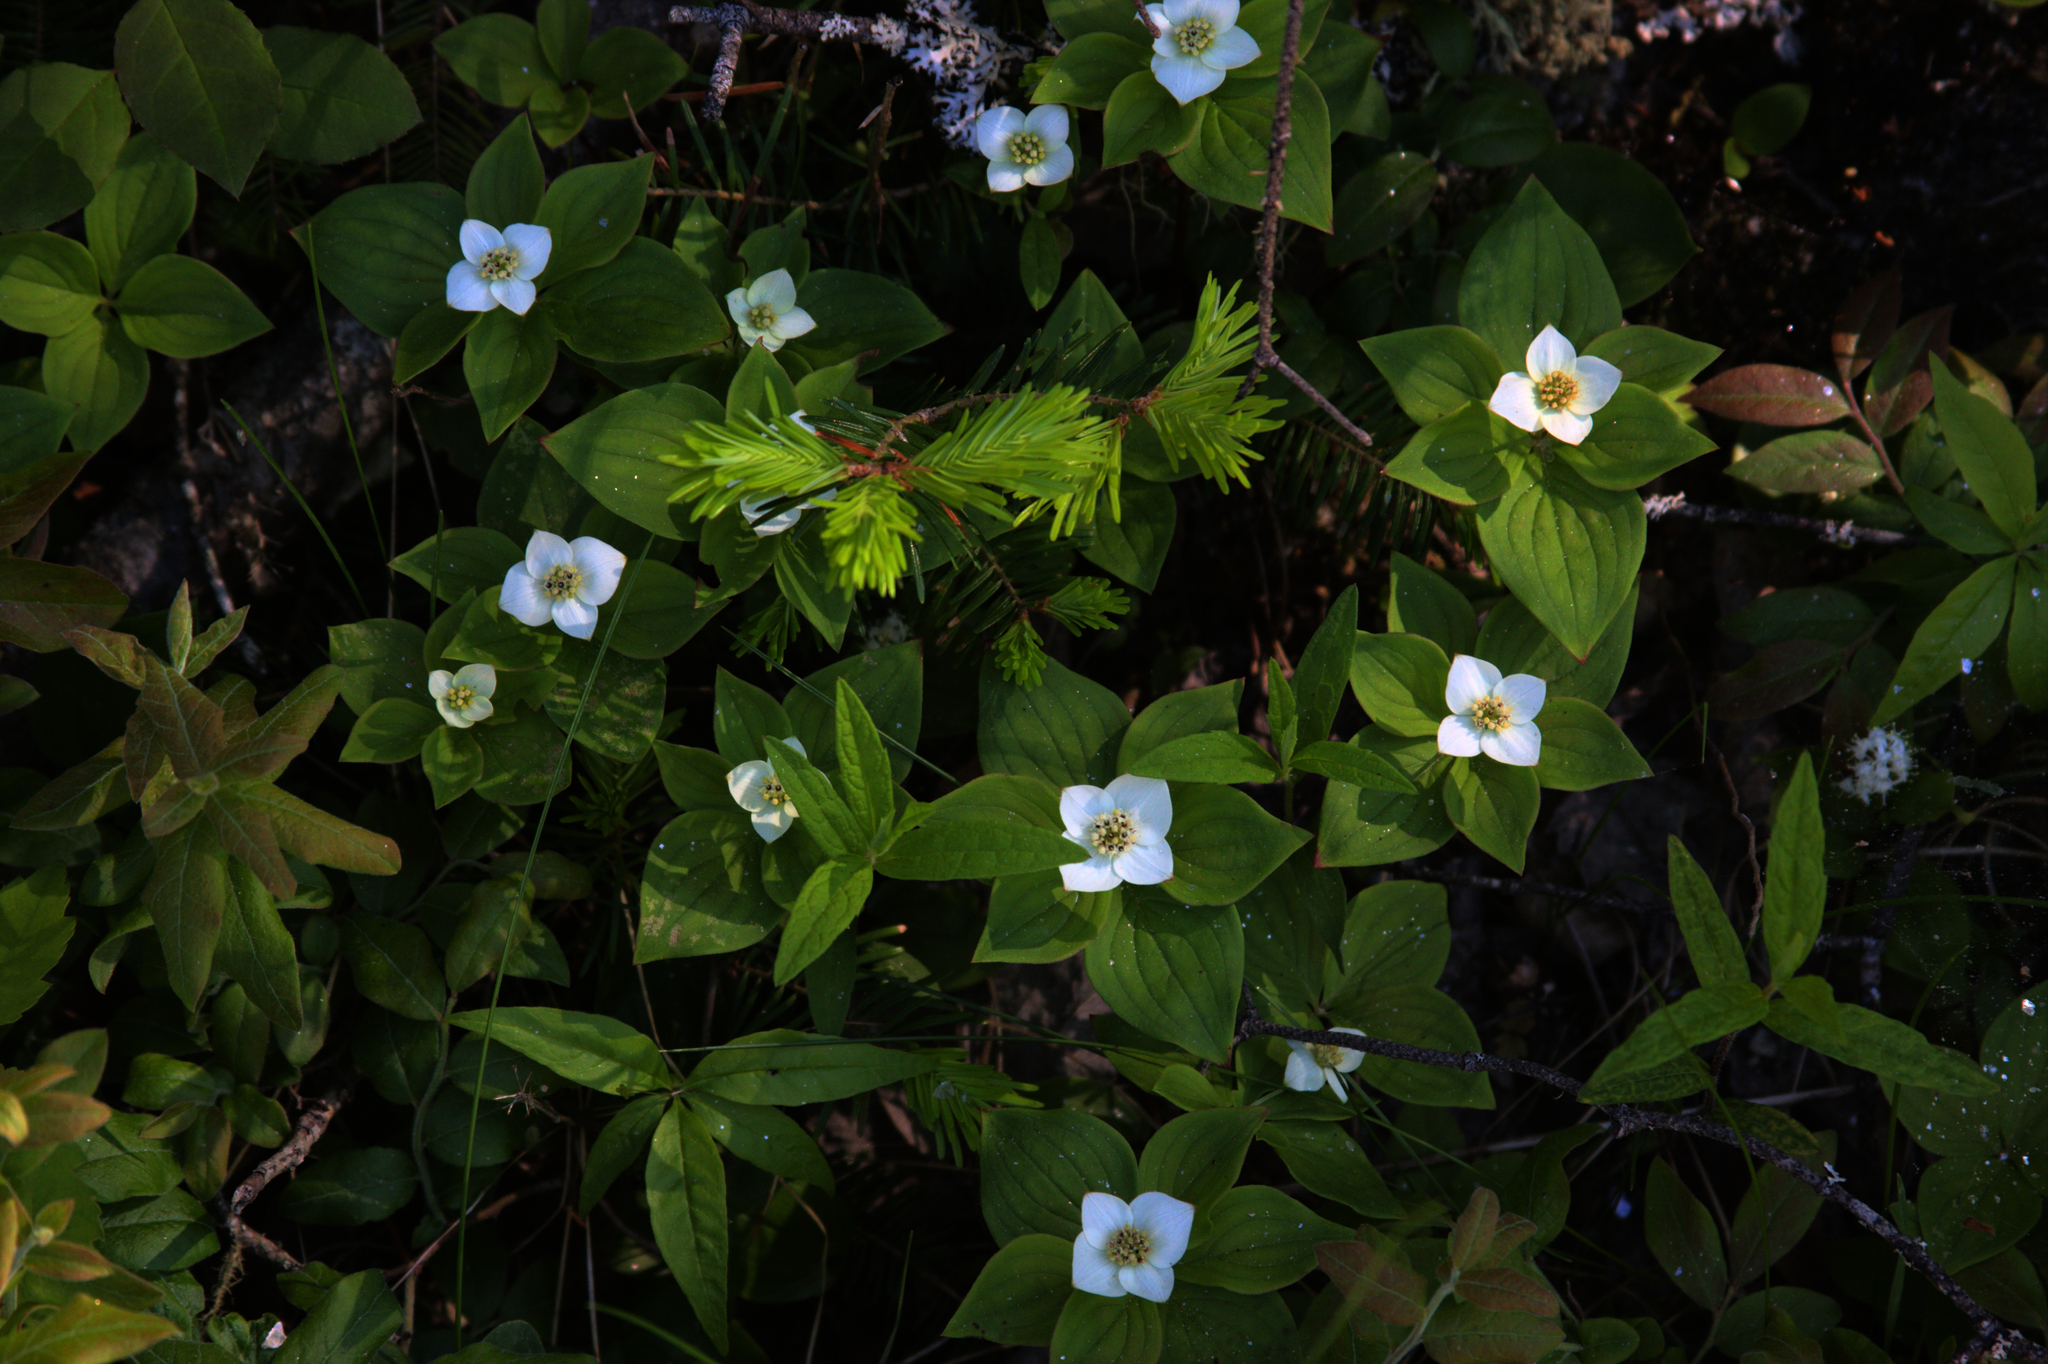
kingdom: Plantae
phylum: Tracheophyta
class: Magnoliopsida
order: Ericales
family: Primulaceae
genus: Lysimachia
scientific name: Lysimachia borealis
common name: American starflower
